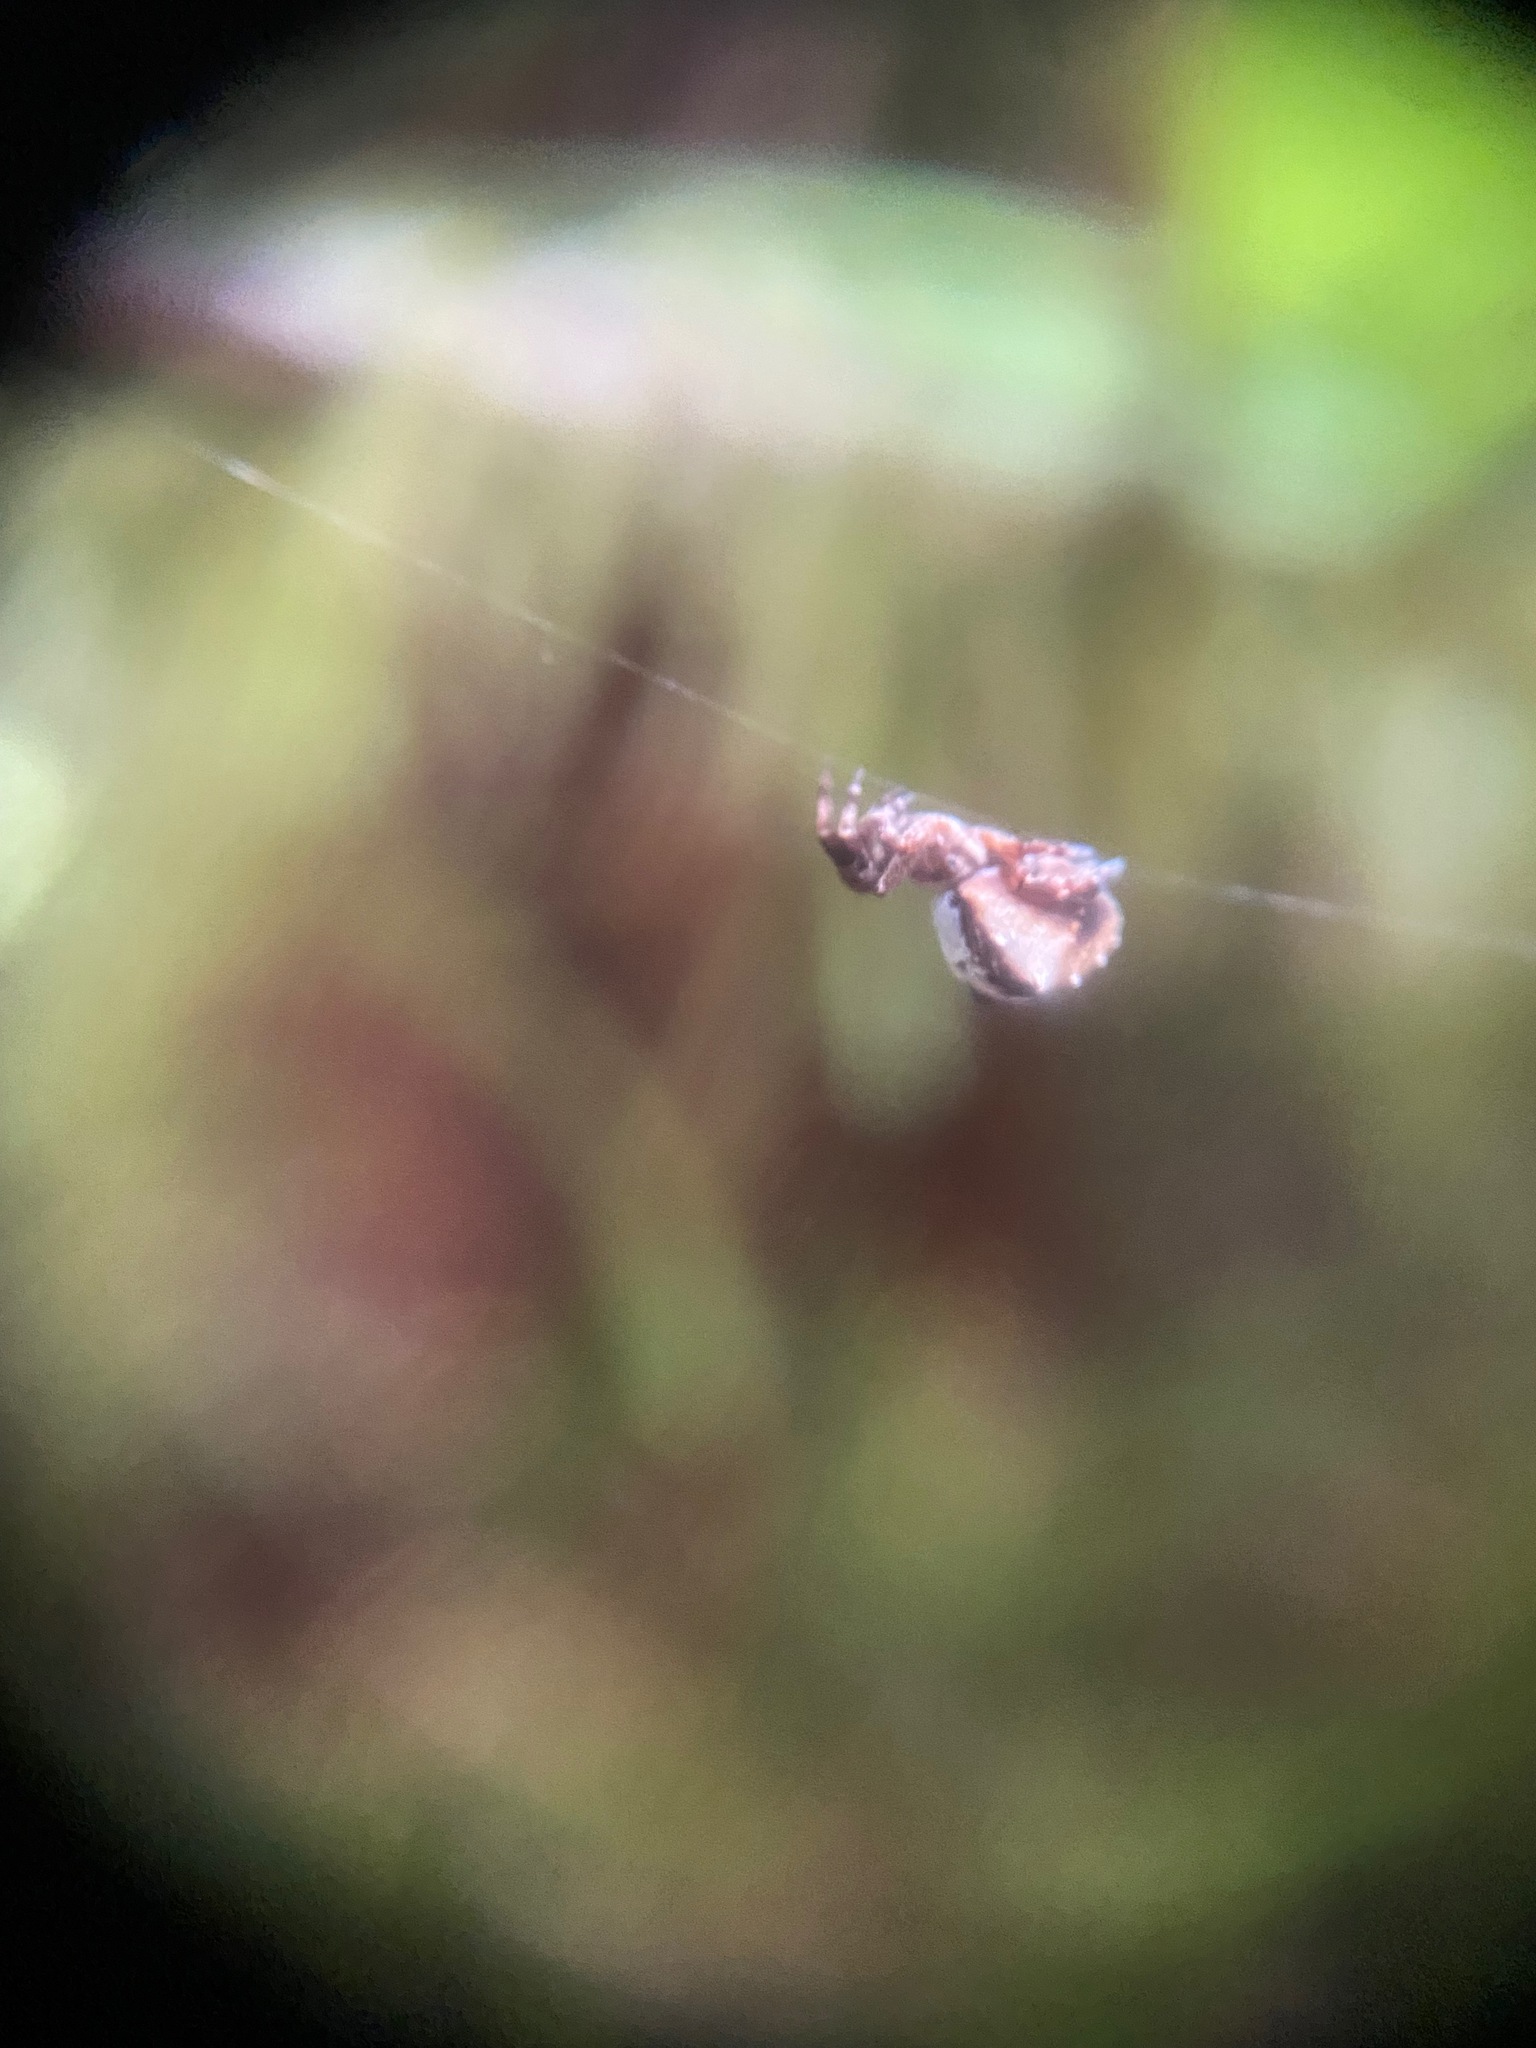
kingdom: Animalia
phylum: Arthropoda
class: Arachnida
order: Araneae
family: Uloboridae
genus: Hyptiotes
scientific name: Hyptiotes gertschi
